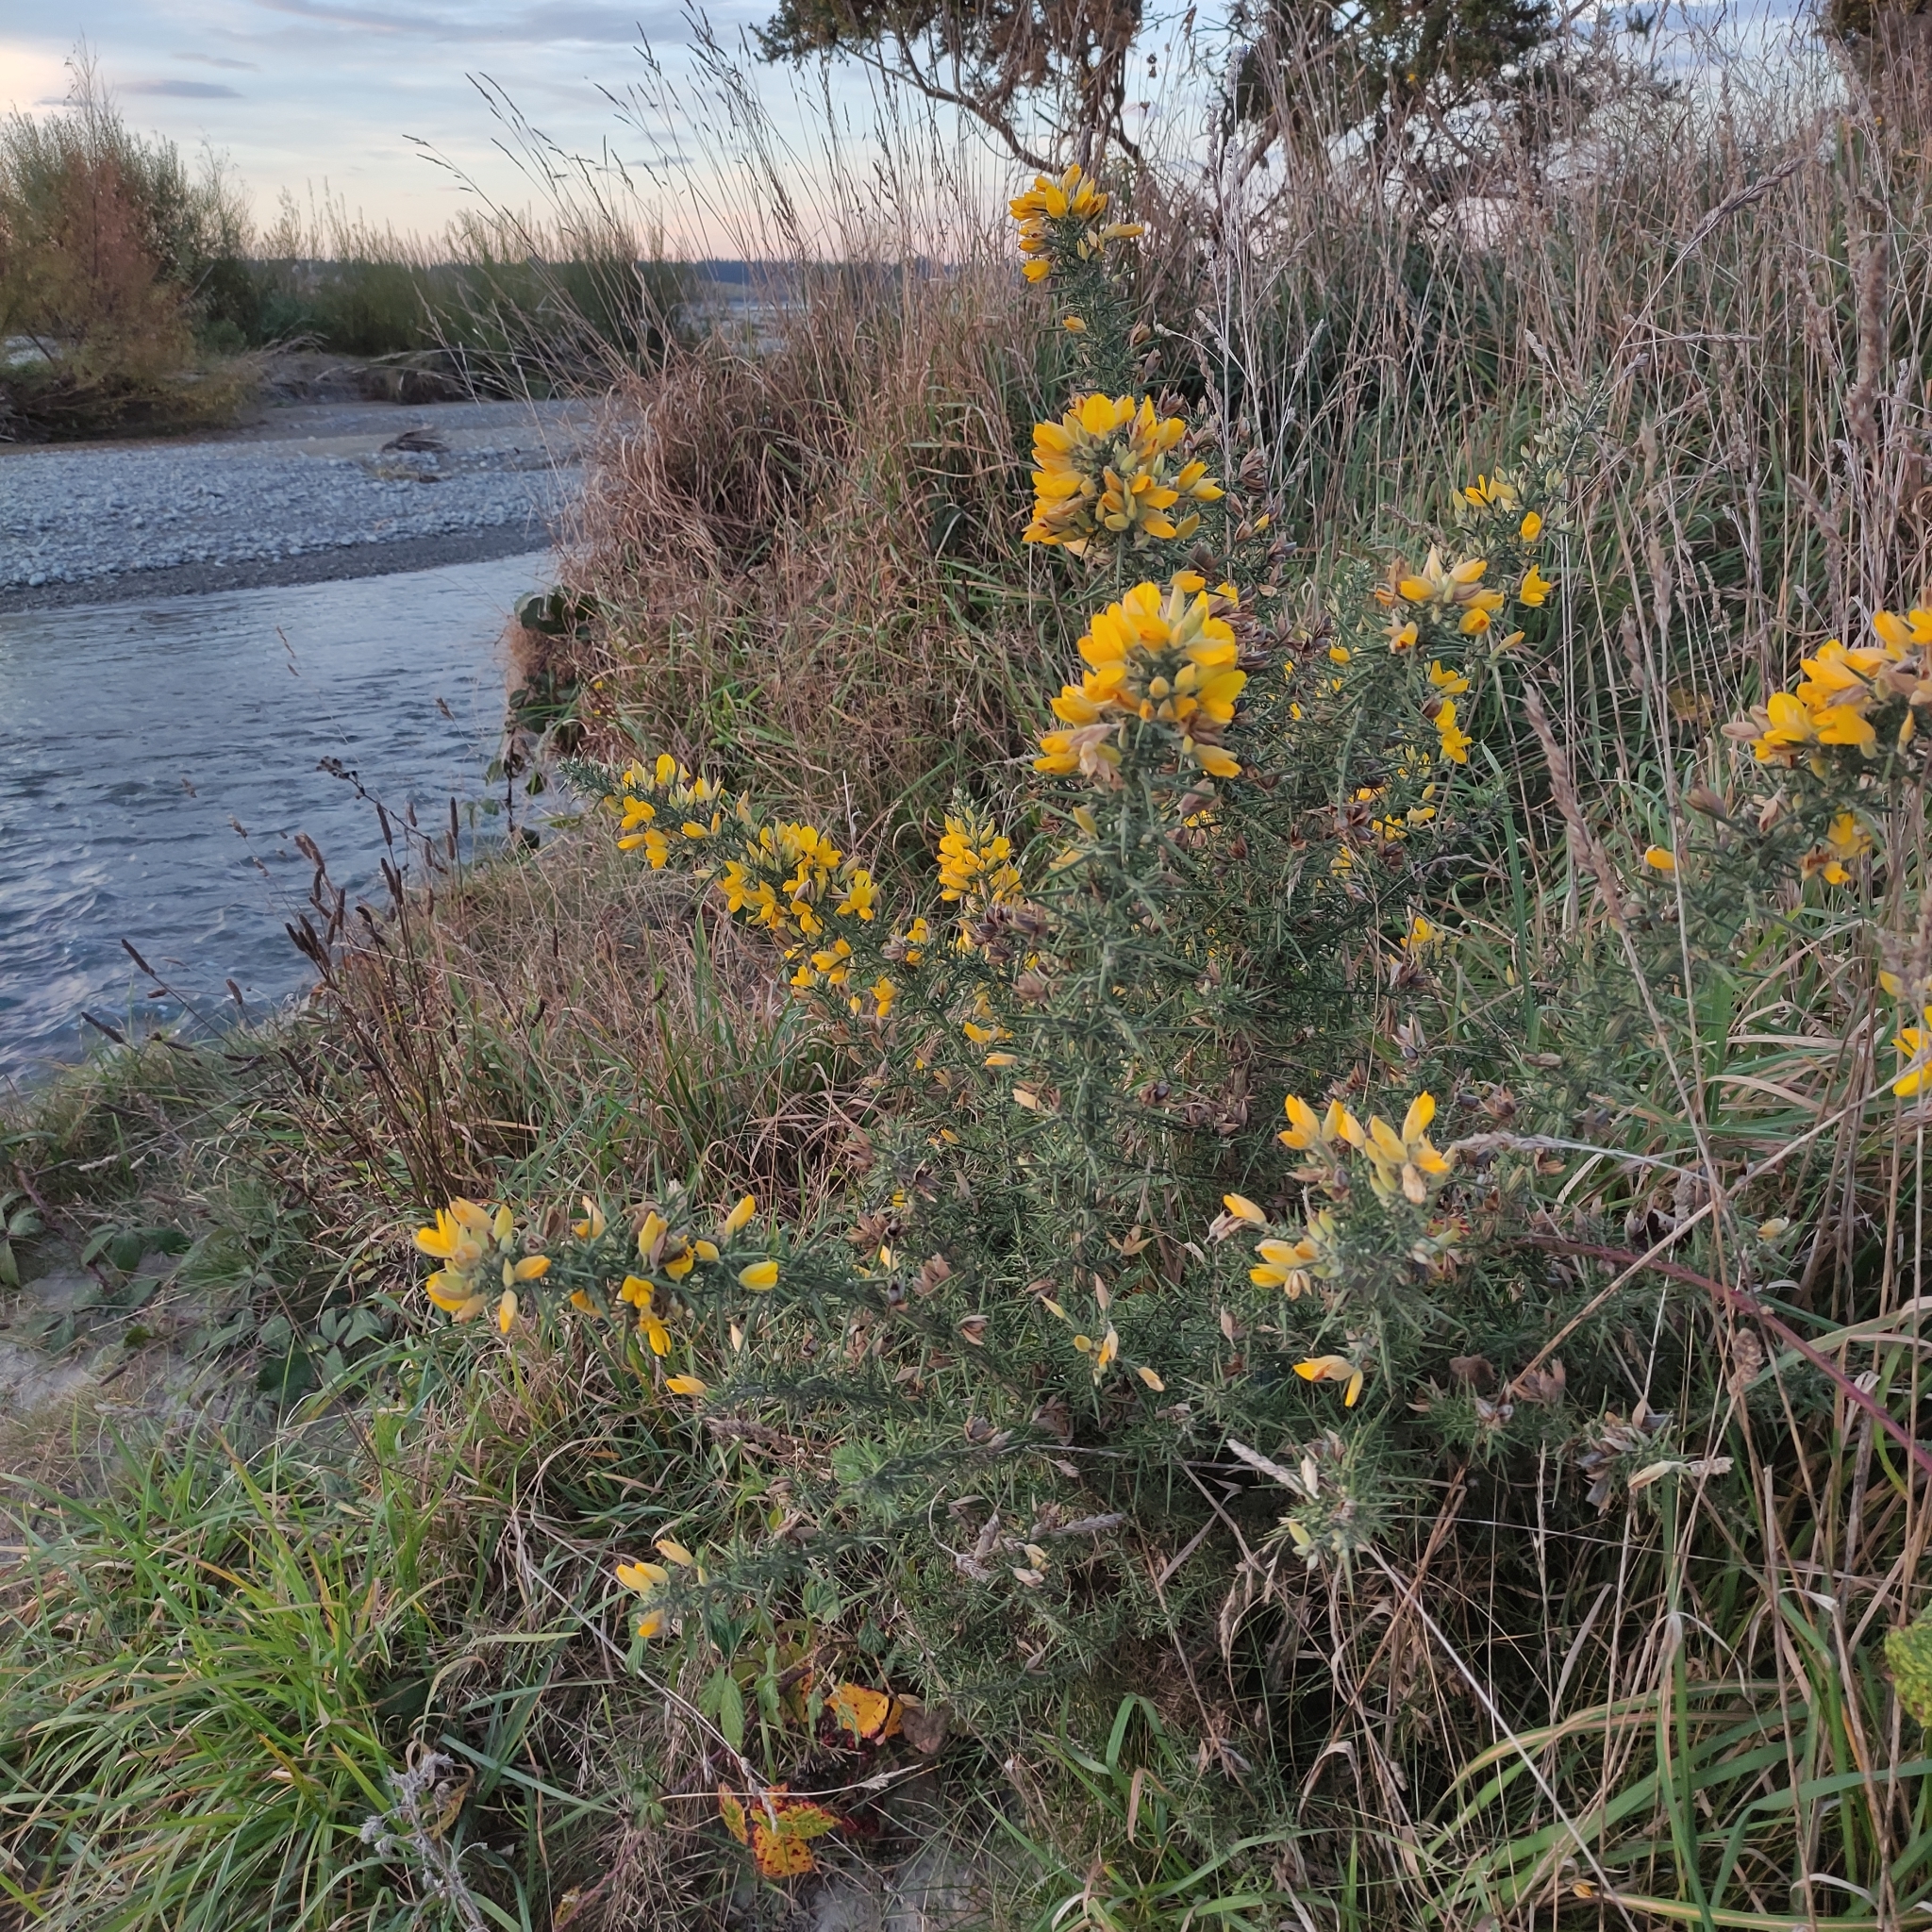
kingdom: Plantae
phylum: Tracheophyta
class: Magnoliopsida
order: Fabales
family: Fabaceae
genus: Ulex
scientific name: Ulex europaeus
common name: Common gorse
